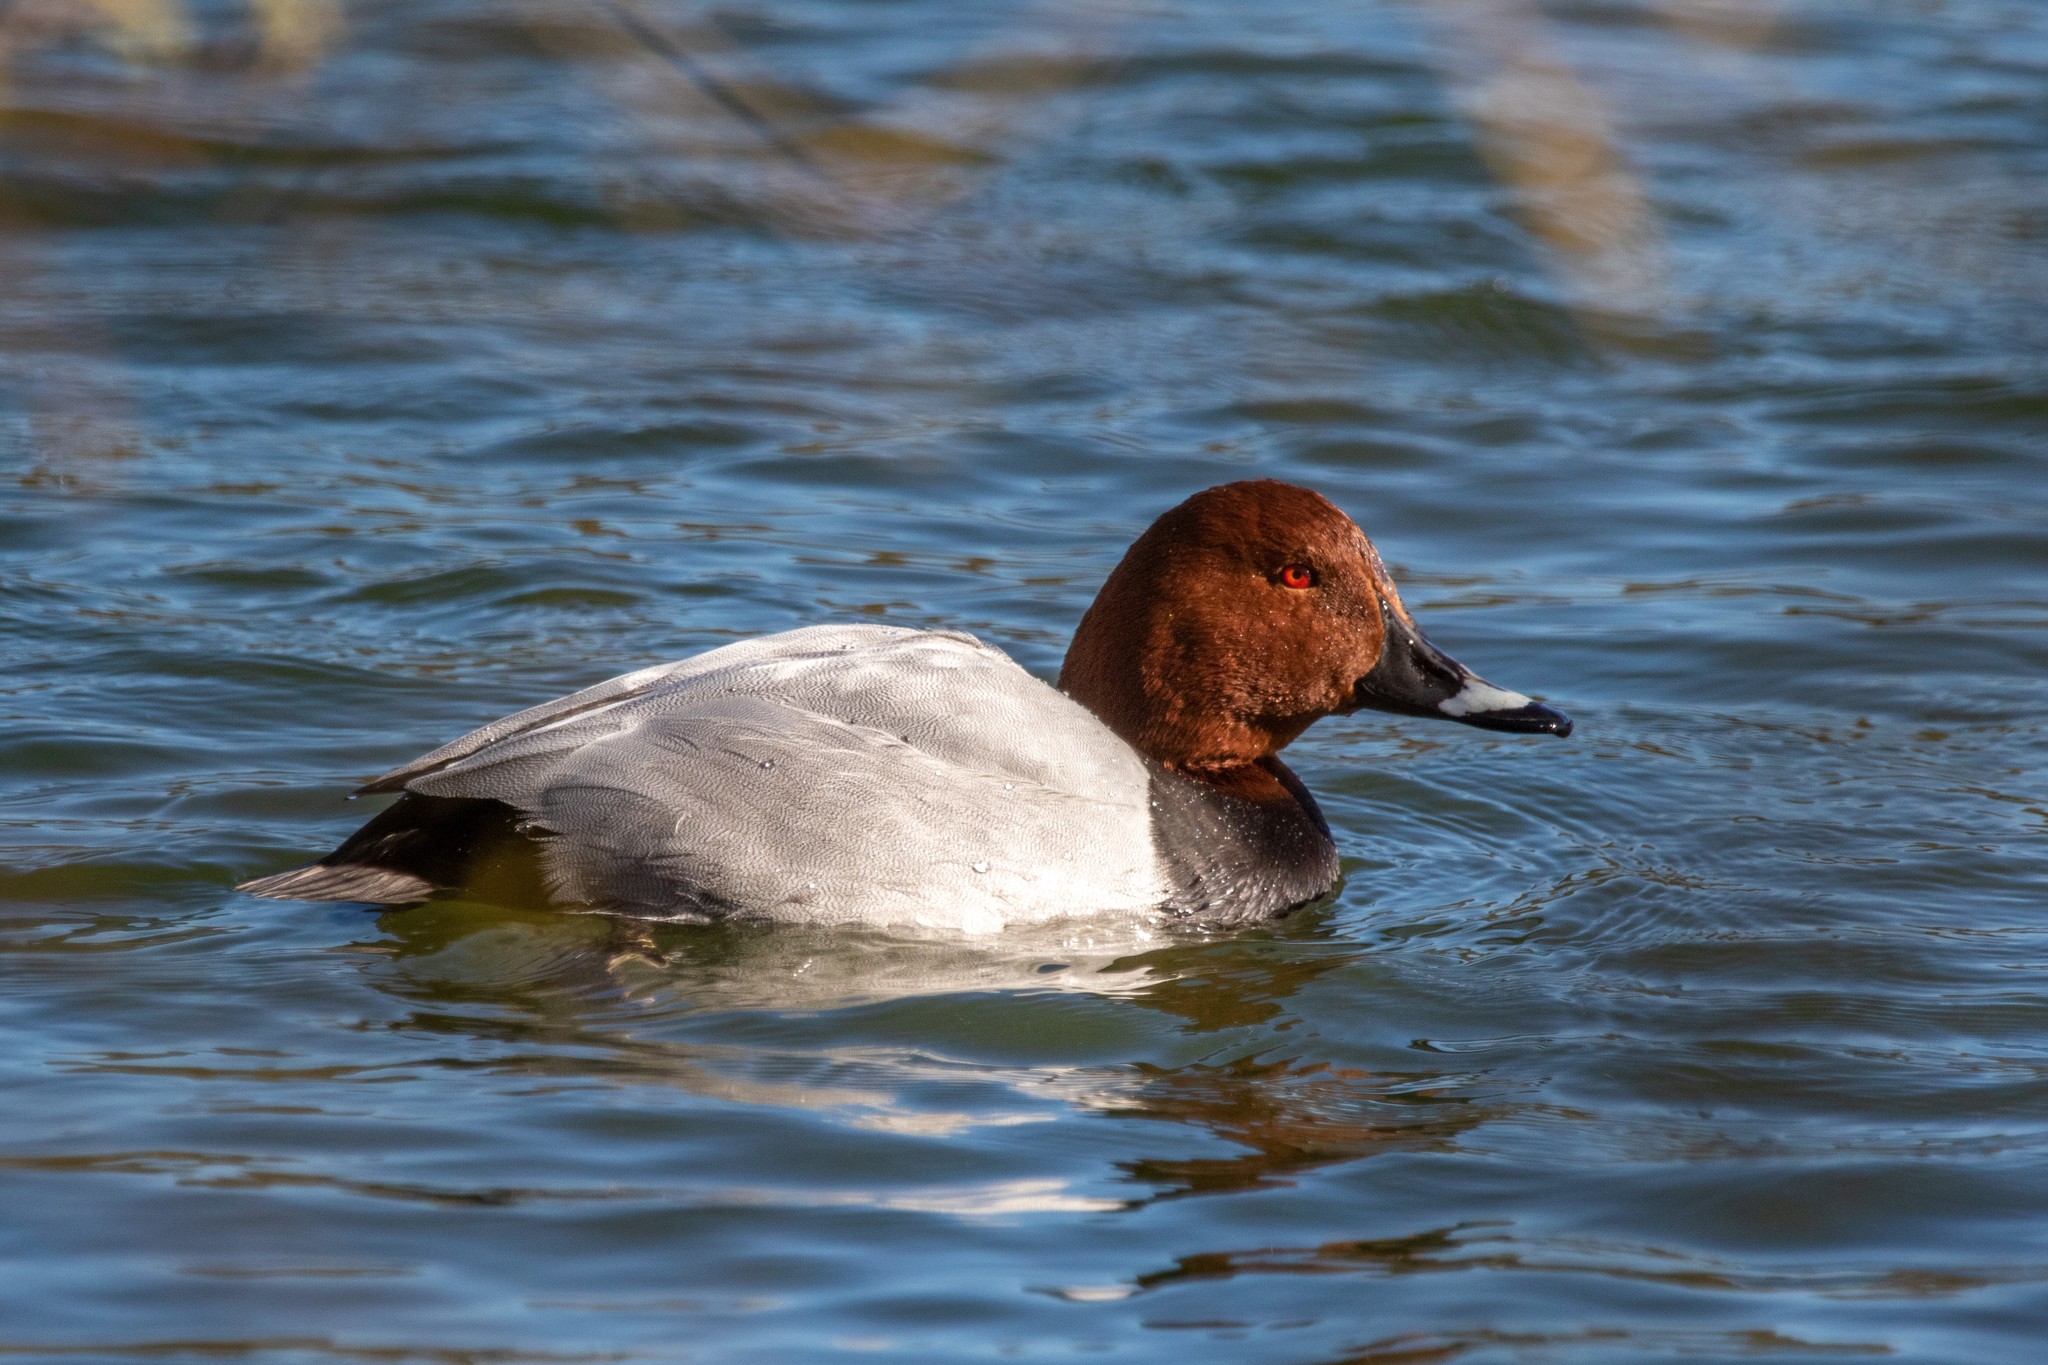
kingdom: Animalia
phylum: Chordata
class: Aves
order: Anseriformes
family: Anatidae
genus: Aythya
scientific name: Aythya ferina
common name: Common pochard
